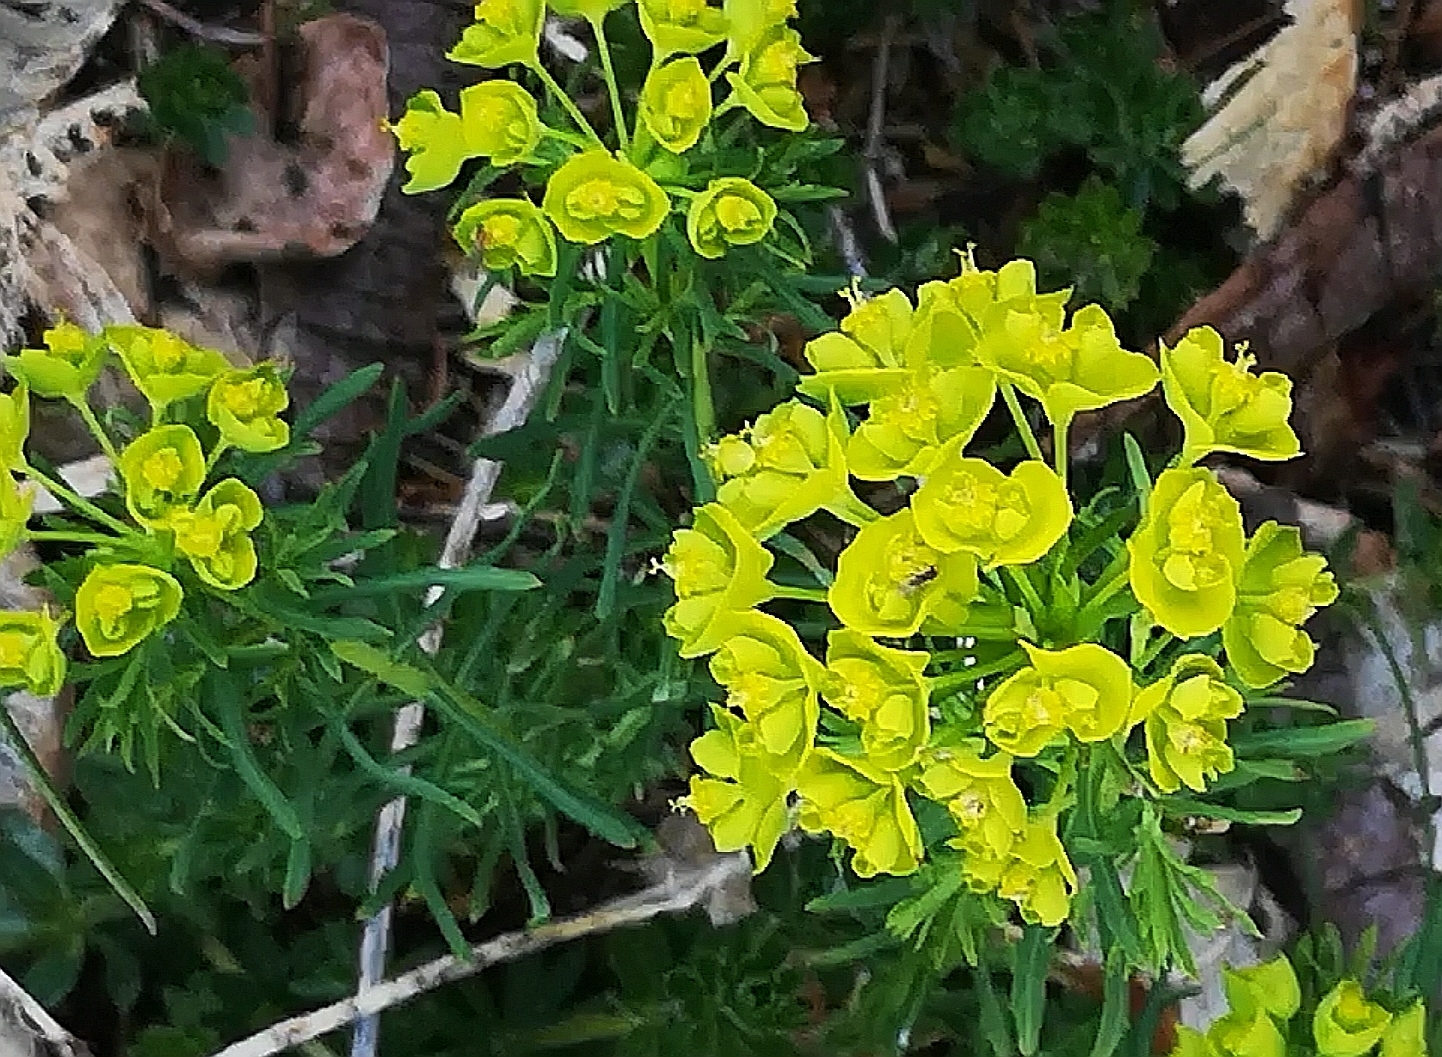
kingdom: Plantae
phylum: Tracheophyta
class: Magnoliopsida
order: Malpighiales
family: Euphorbiaceae
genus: Euphorbia
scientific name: Euphorbia cyparissias
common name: Cypress spurge
